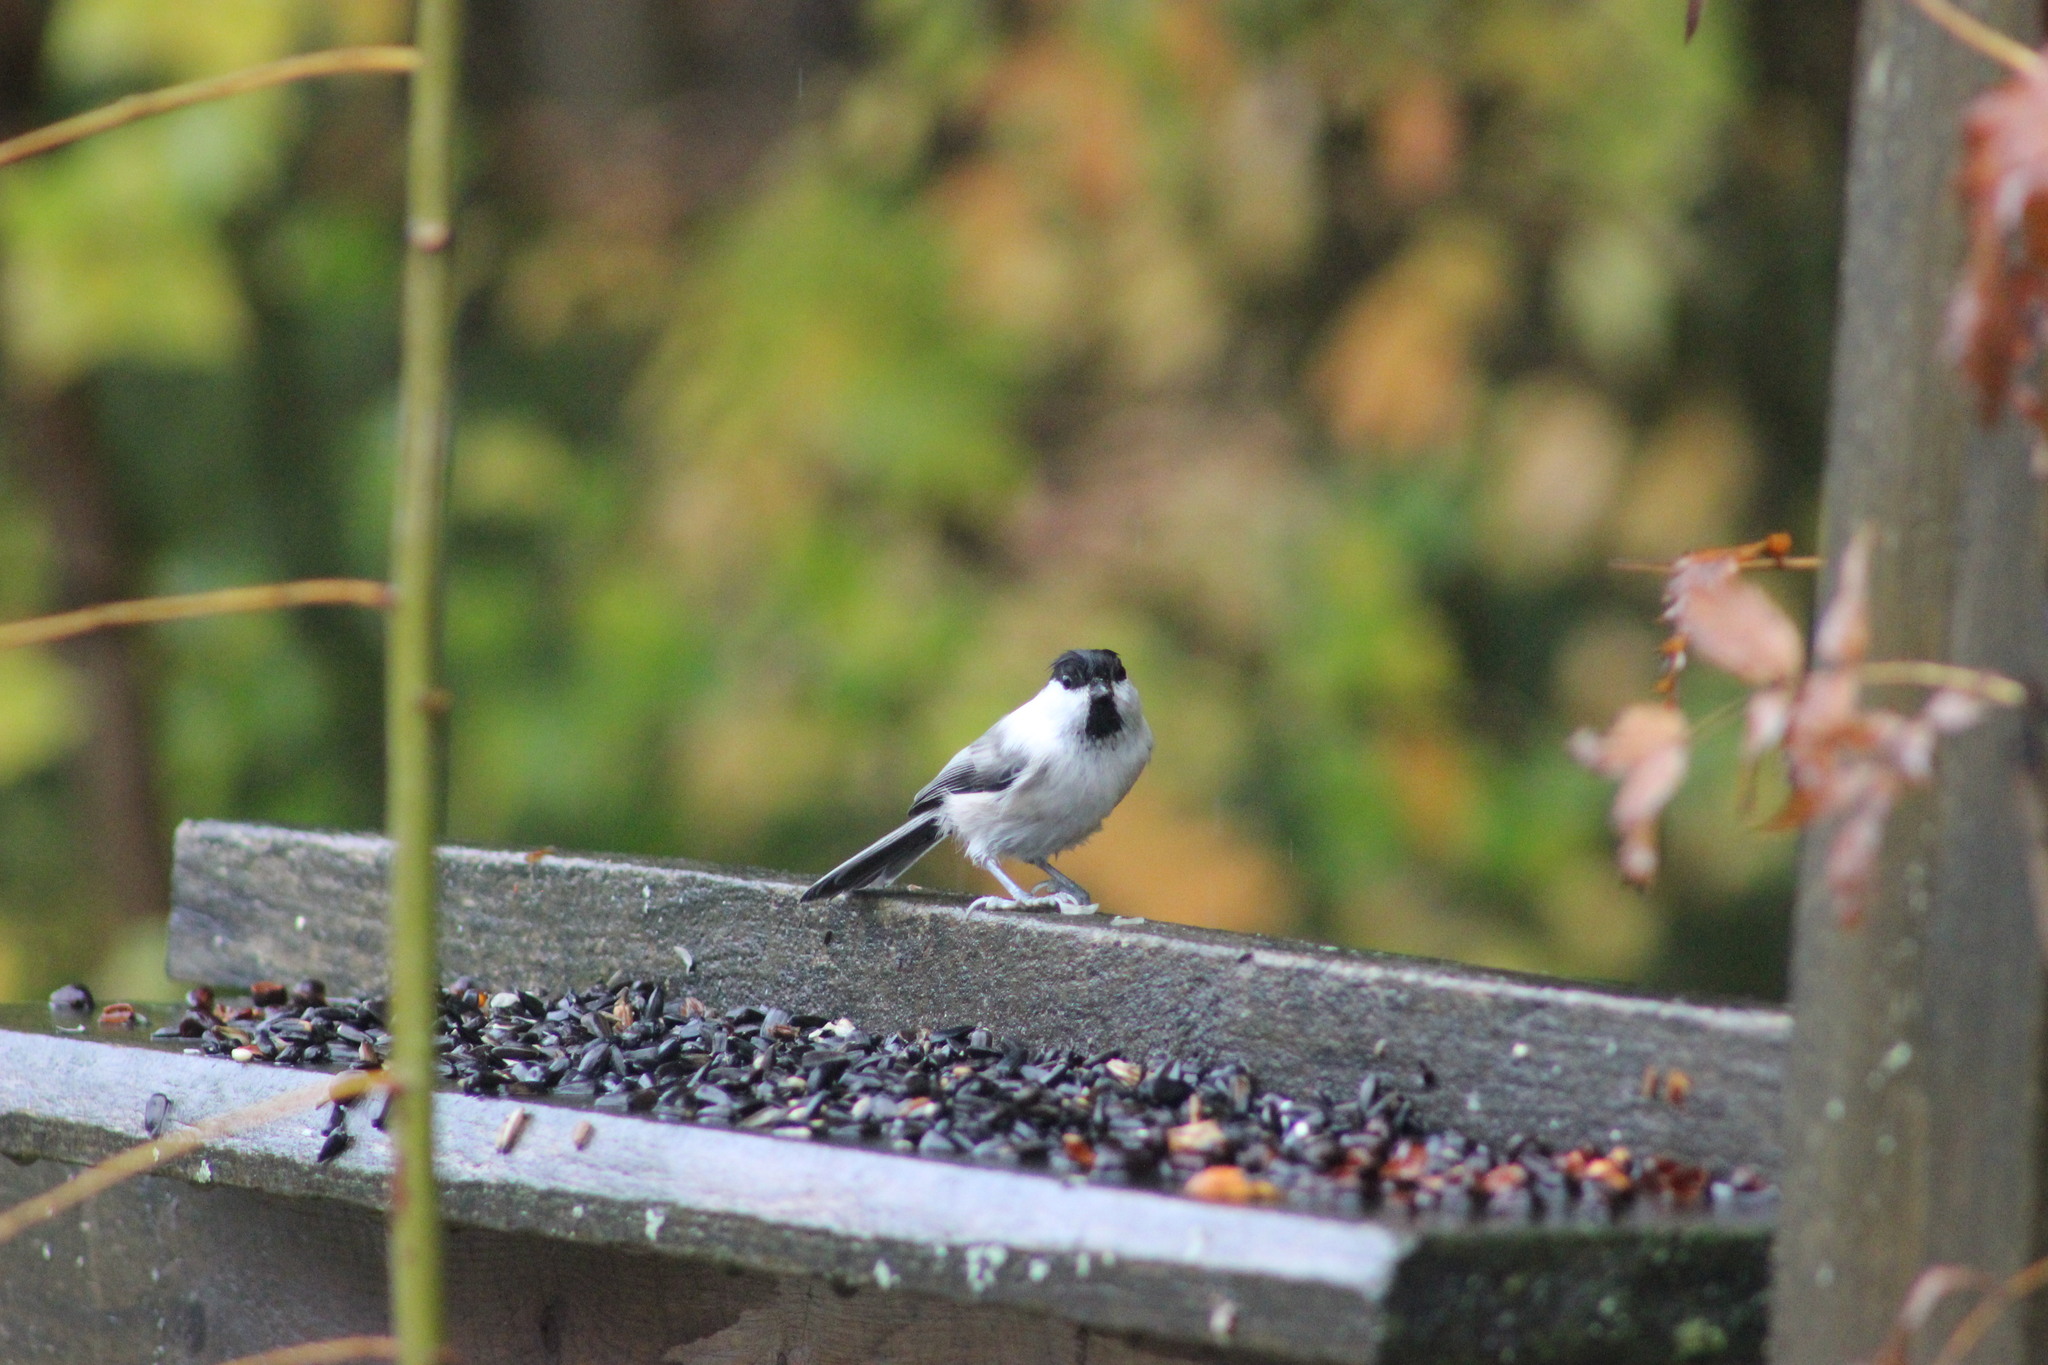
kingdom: Animalia
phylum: Chordata
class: Aves
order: Passeriformes
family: Paridae
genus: Poecile
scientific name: Poecile montanus
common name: Willow tit
